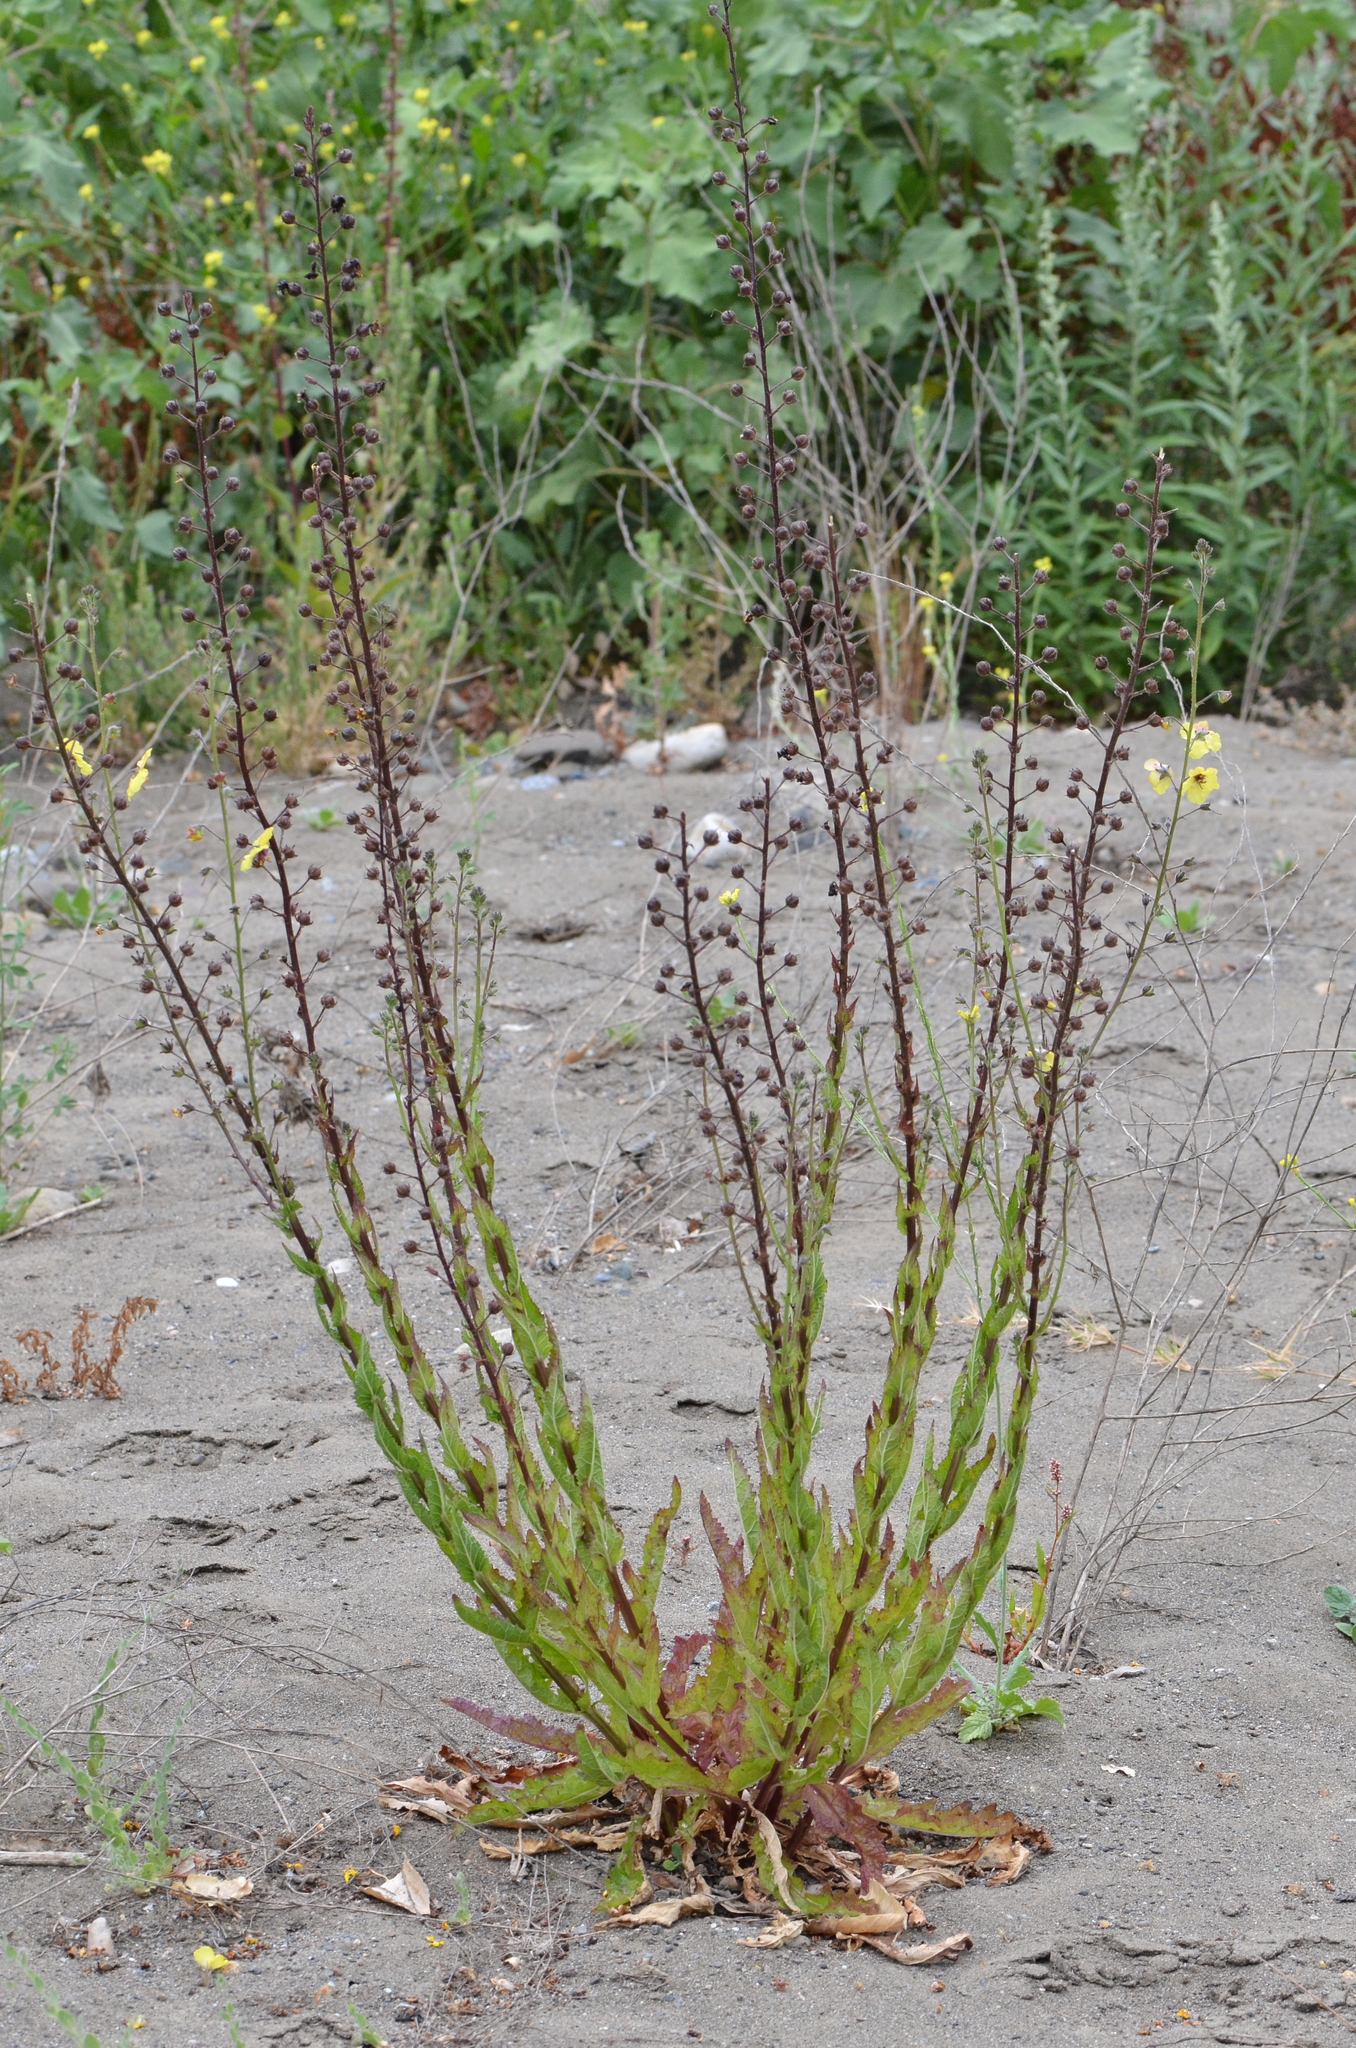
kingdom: Plantae
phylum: Tracheophyta
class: Magnoliopsida
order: Lamiales
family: Scrophulariaceae
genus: Verbascum
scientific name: Verbascum blattaria
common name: Moth mullein
